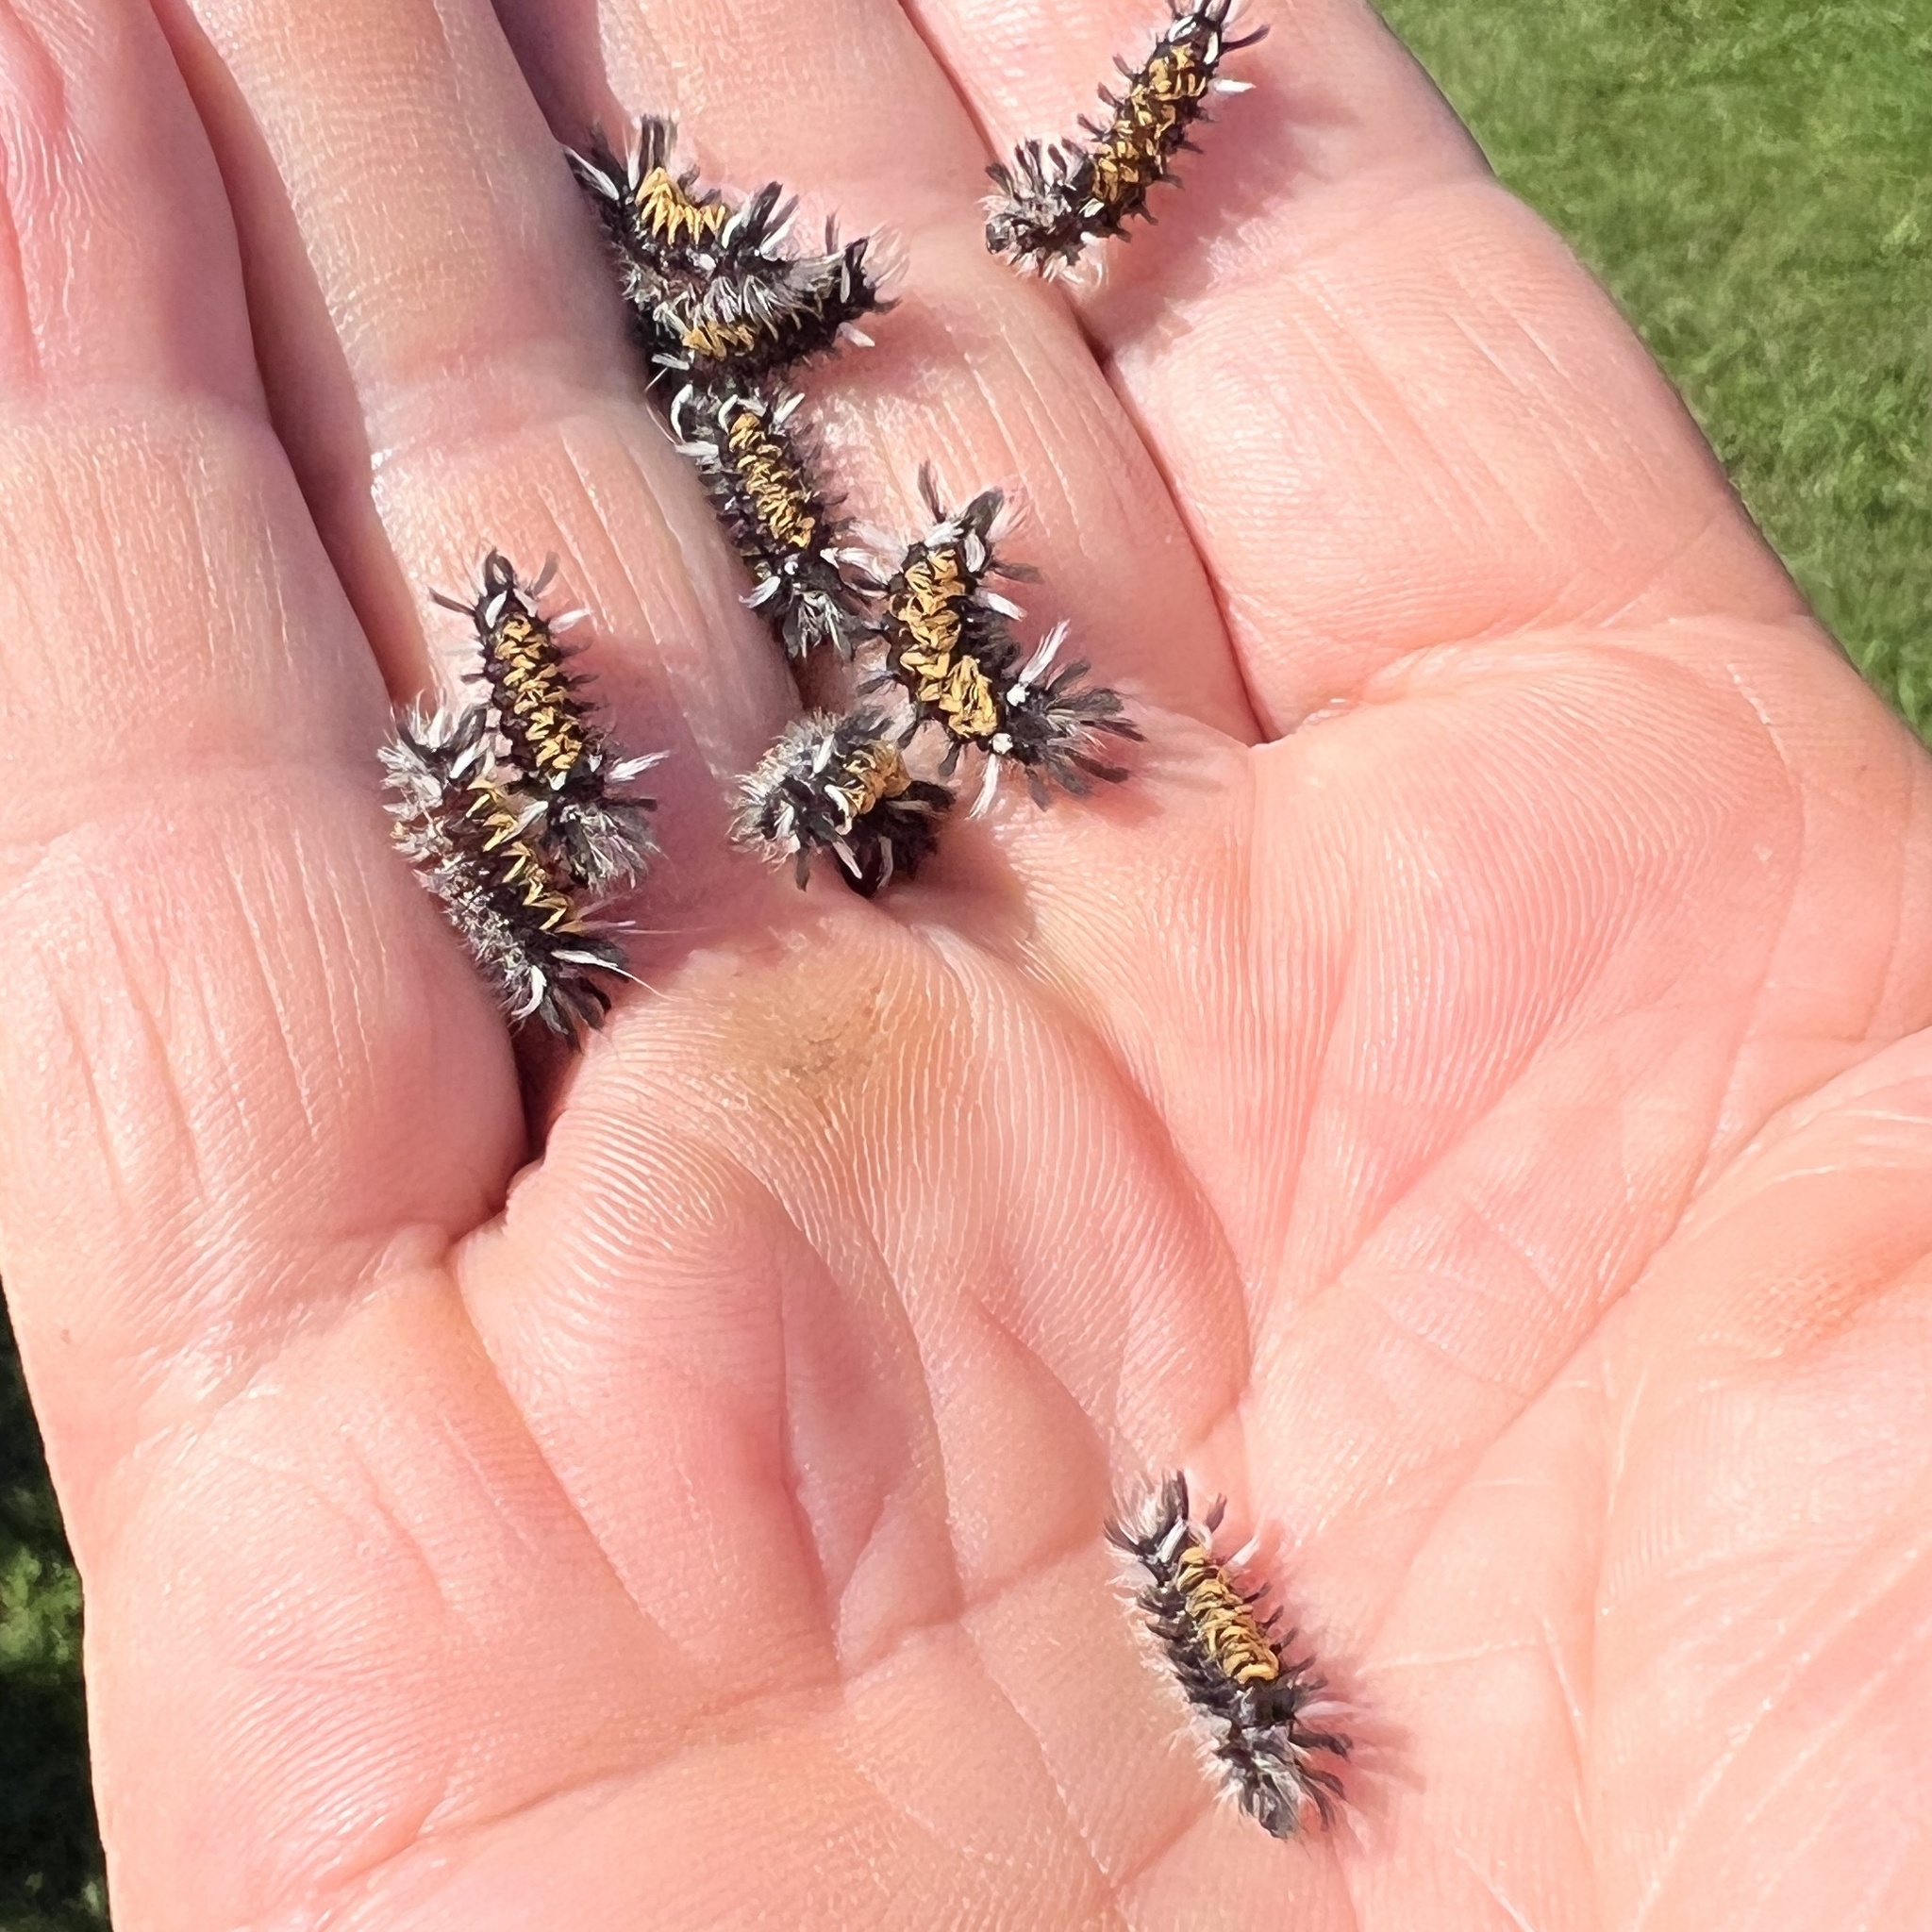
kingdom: Animalia
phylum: Arthropoda
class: Insecta
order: Lepidoptera
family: Erebidae
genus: Euchaetes
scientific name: Euchaetes egle
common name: Milkweed tussock moth
